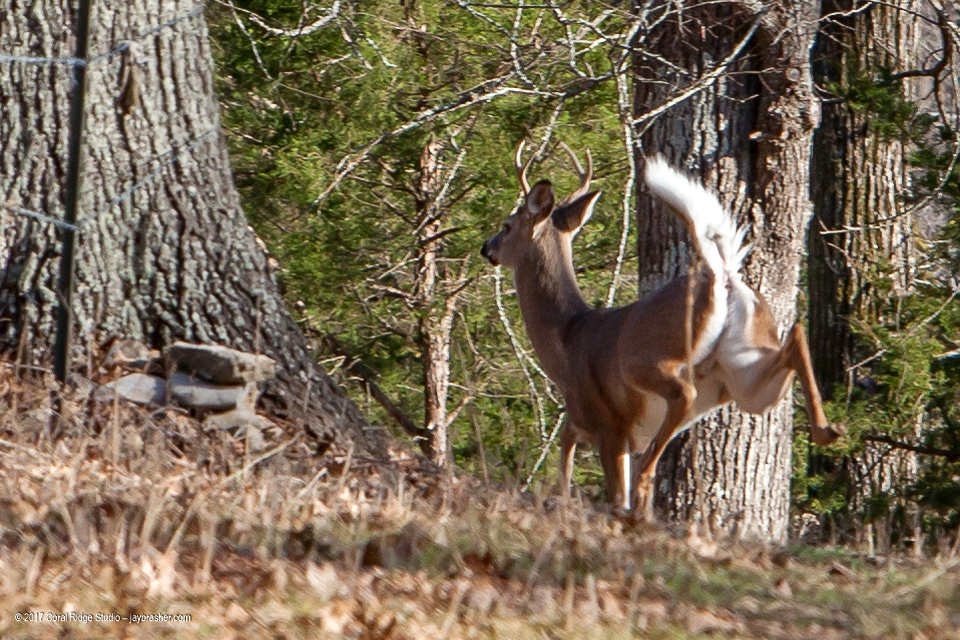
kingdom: Animalia
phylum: Chordata
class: Mammalia
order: Artiodactyla
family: Cervidae
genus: Odocoileus
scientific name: Odocoileus virginianus
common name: White-tailed deer
